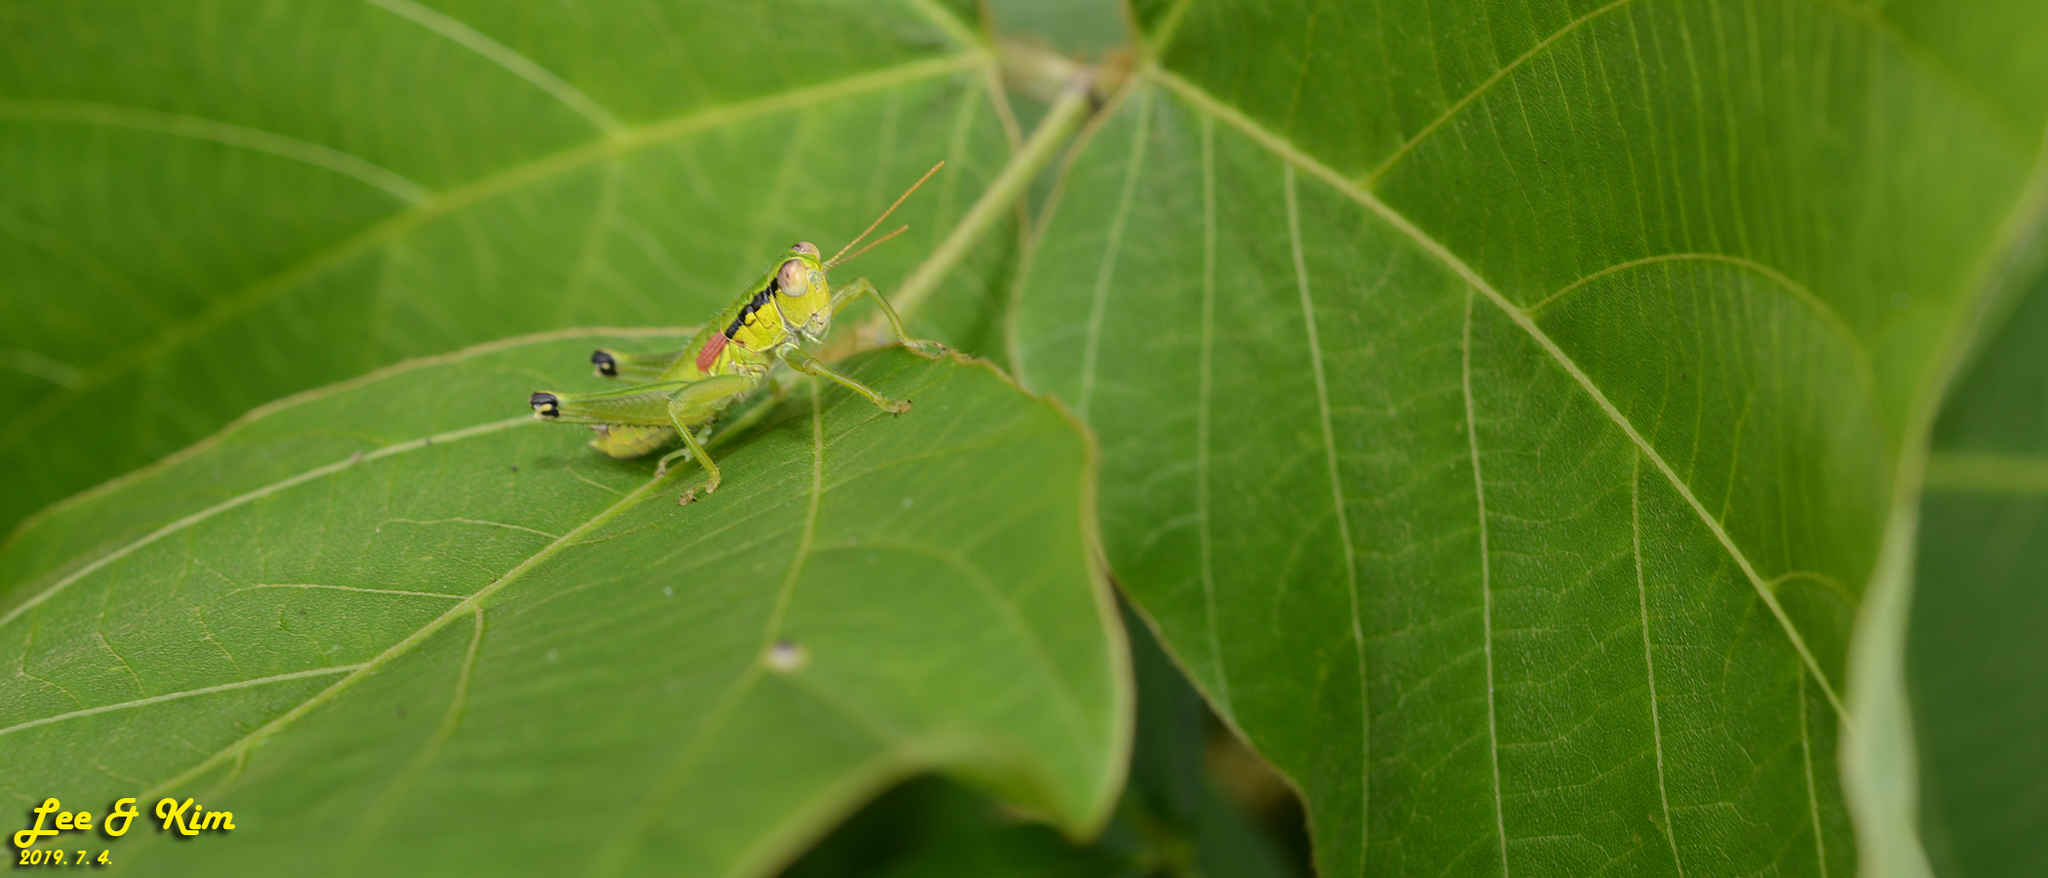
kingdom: Animalia
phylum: Arthropoda
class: Insecta
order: Orthoptera
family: Acrididae
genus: Anapodisma
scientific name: Anapodisma miramae
